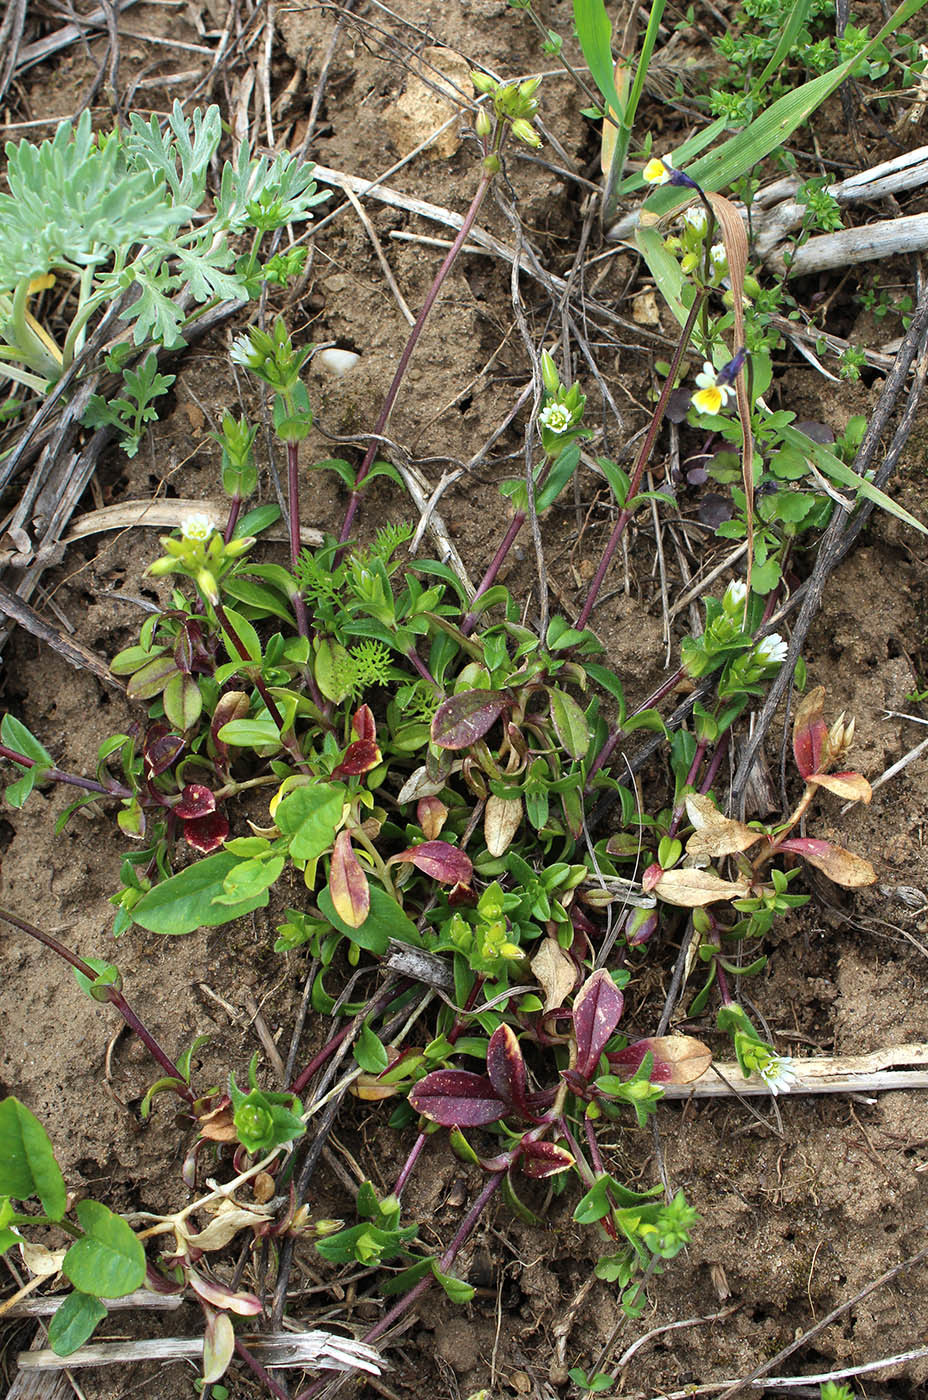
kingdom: Plantae
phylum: Tracheophyta
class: Magnoliopsida
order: Caryophyllales
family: Caryophyllaceae
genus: Cerastium
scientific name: Cerastium holosteoides
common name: Big chickweed
